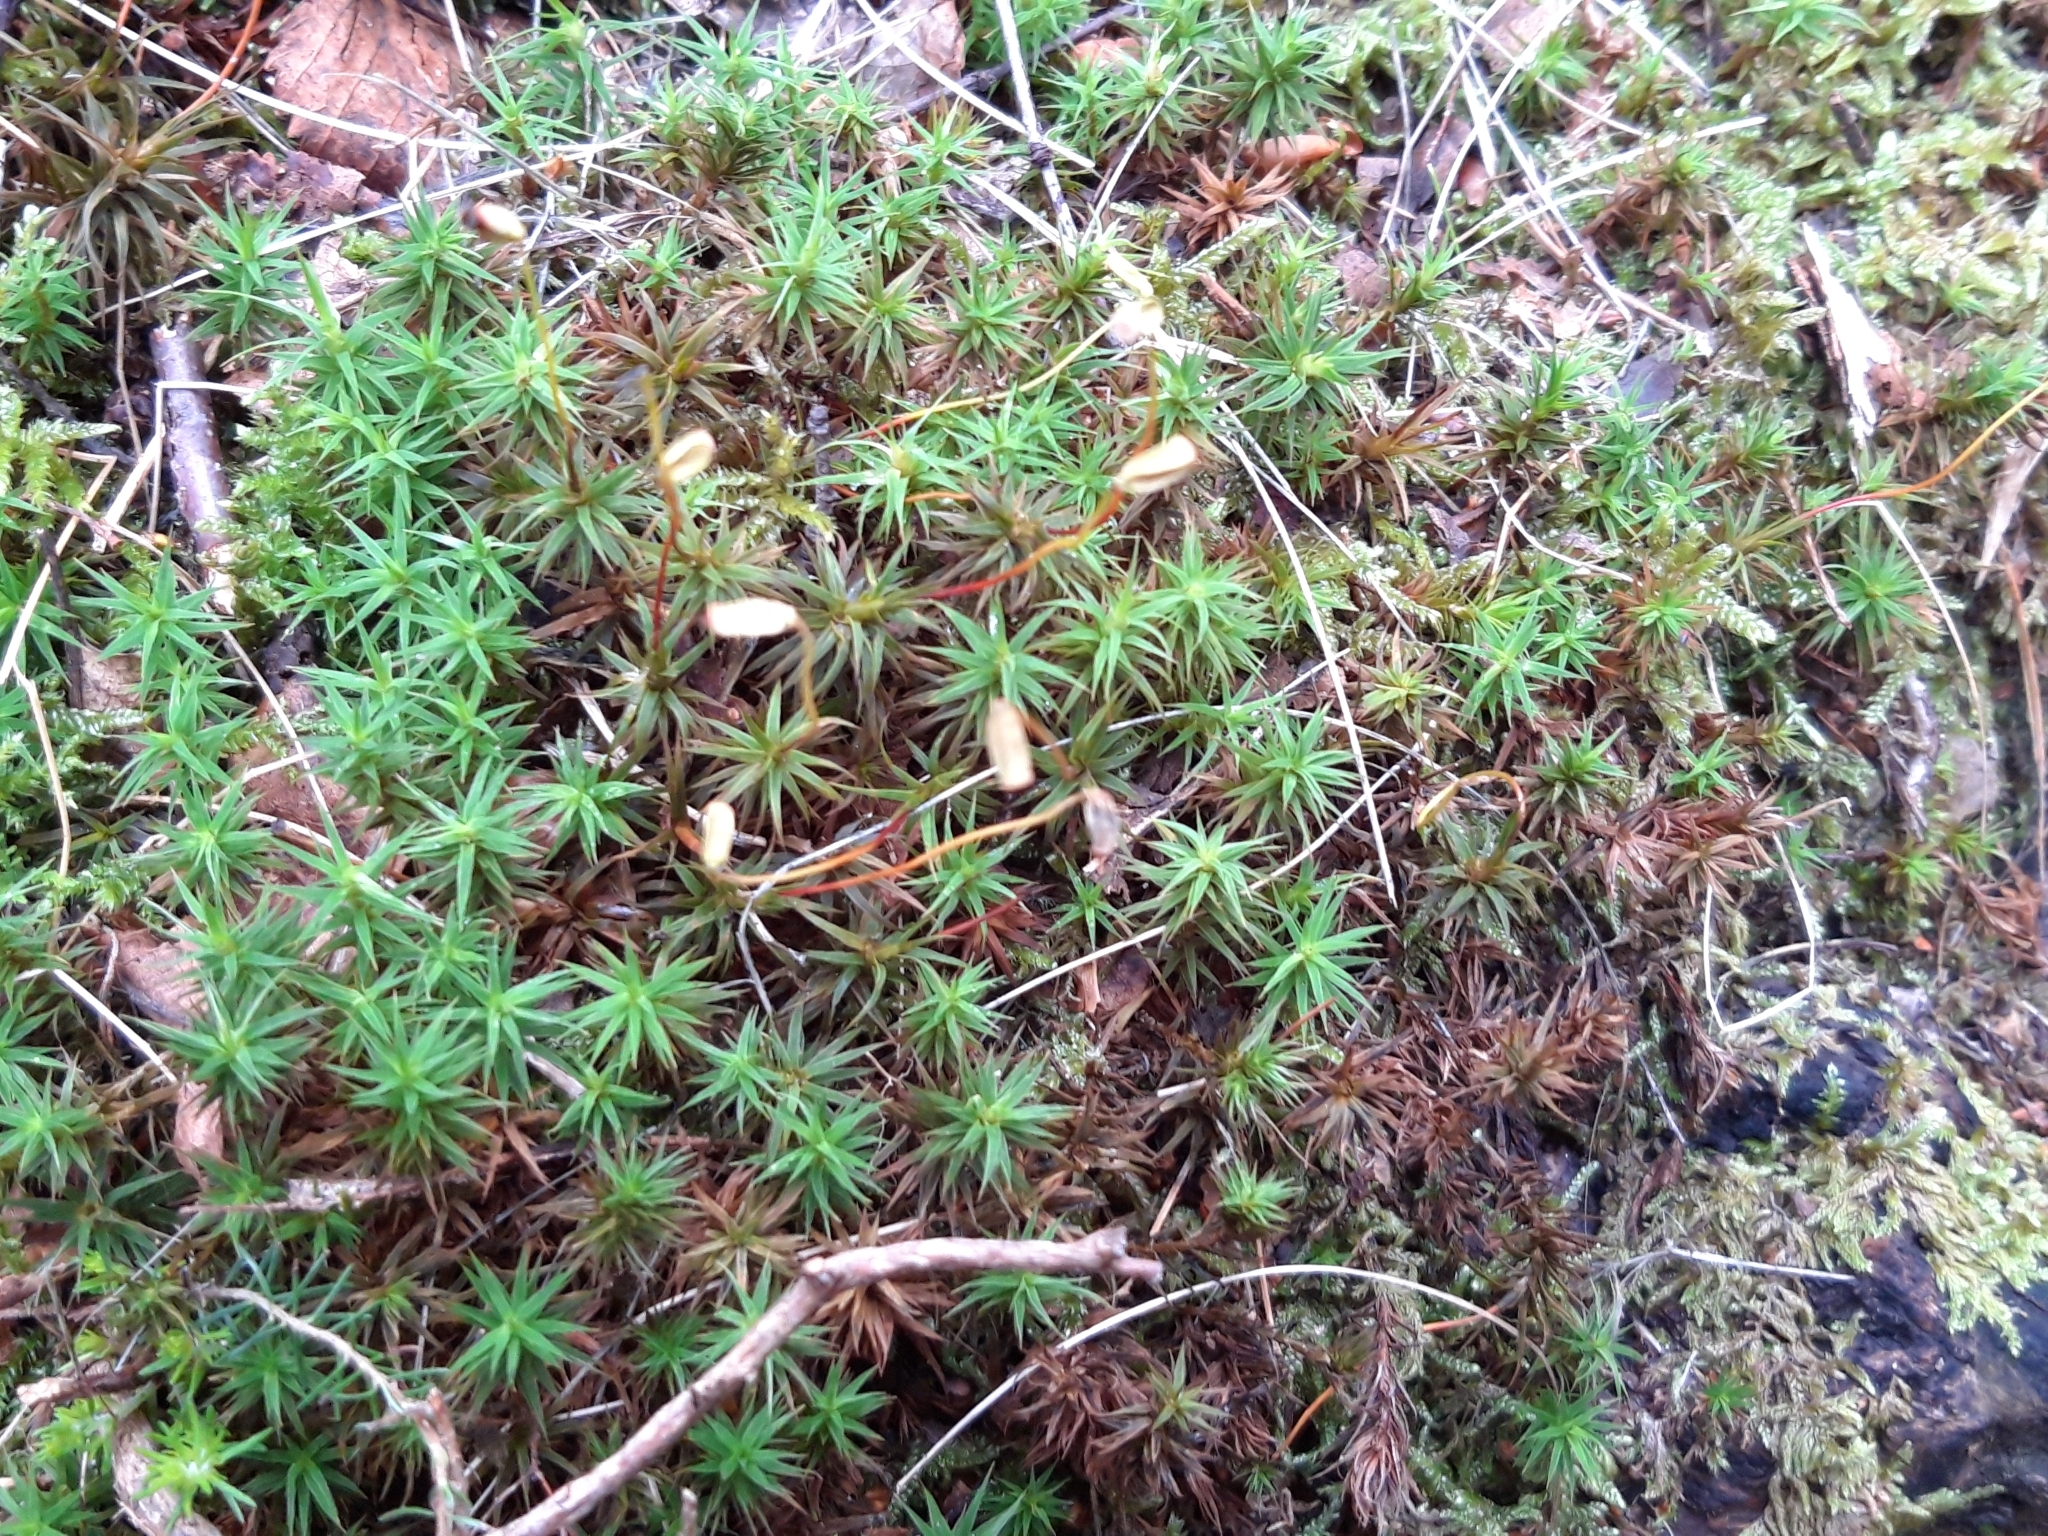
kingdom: Plantae
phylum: Bryophyta
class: Polytrichopsida
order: Polytrichales
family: Polytrichaceae
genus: Polytrichum
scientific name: Polytrichum commune
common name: Common haircap
